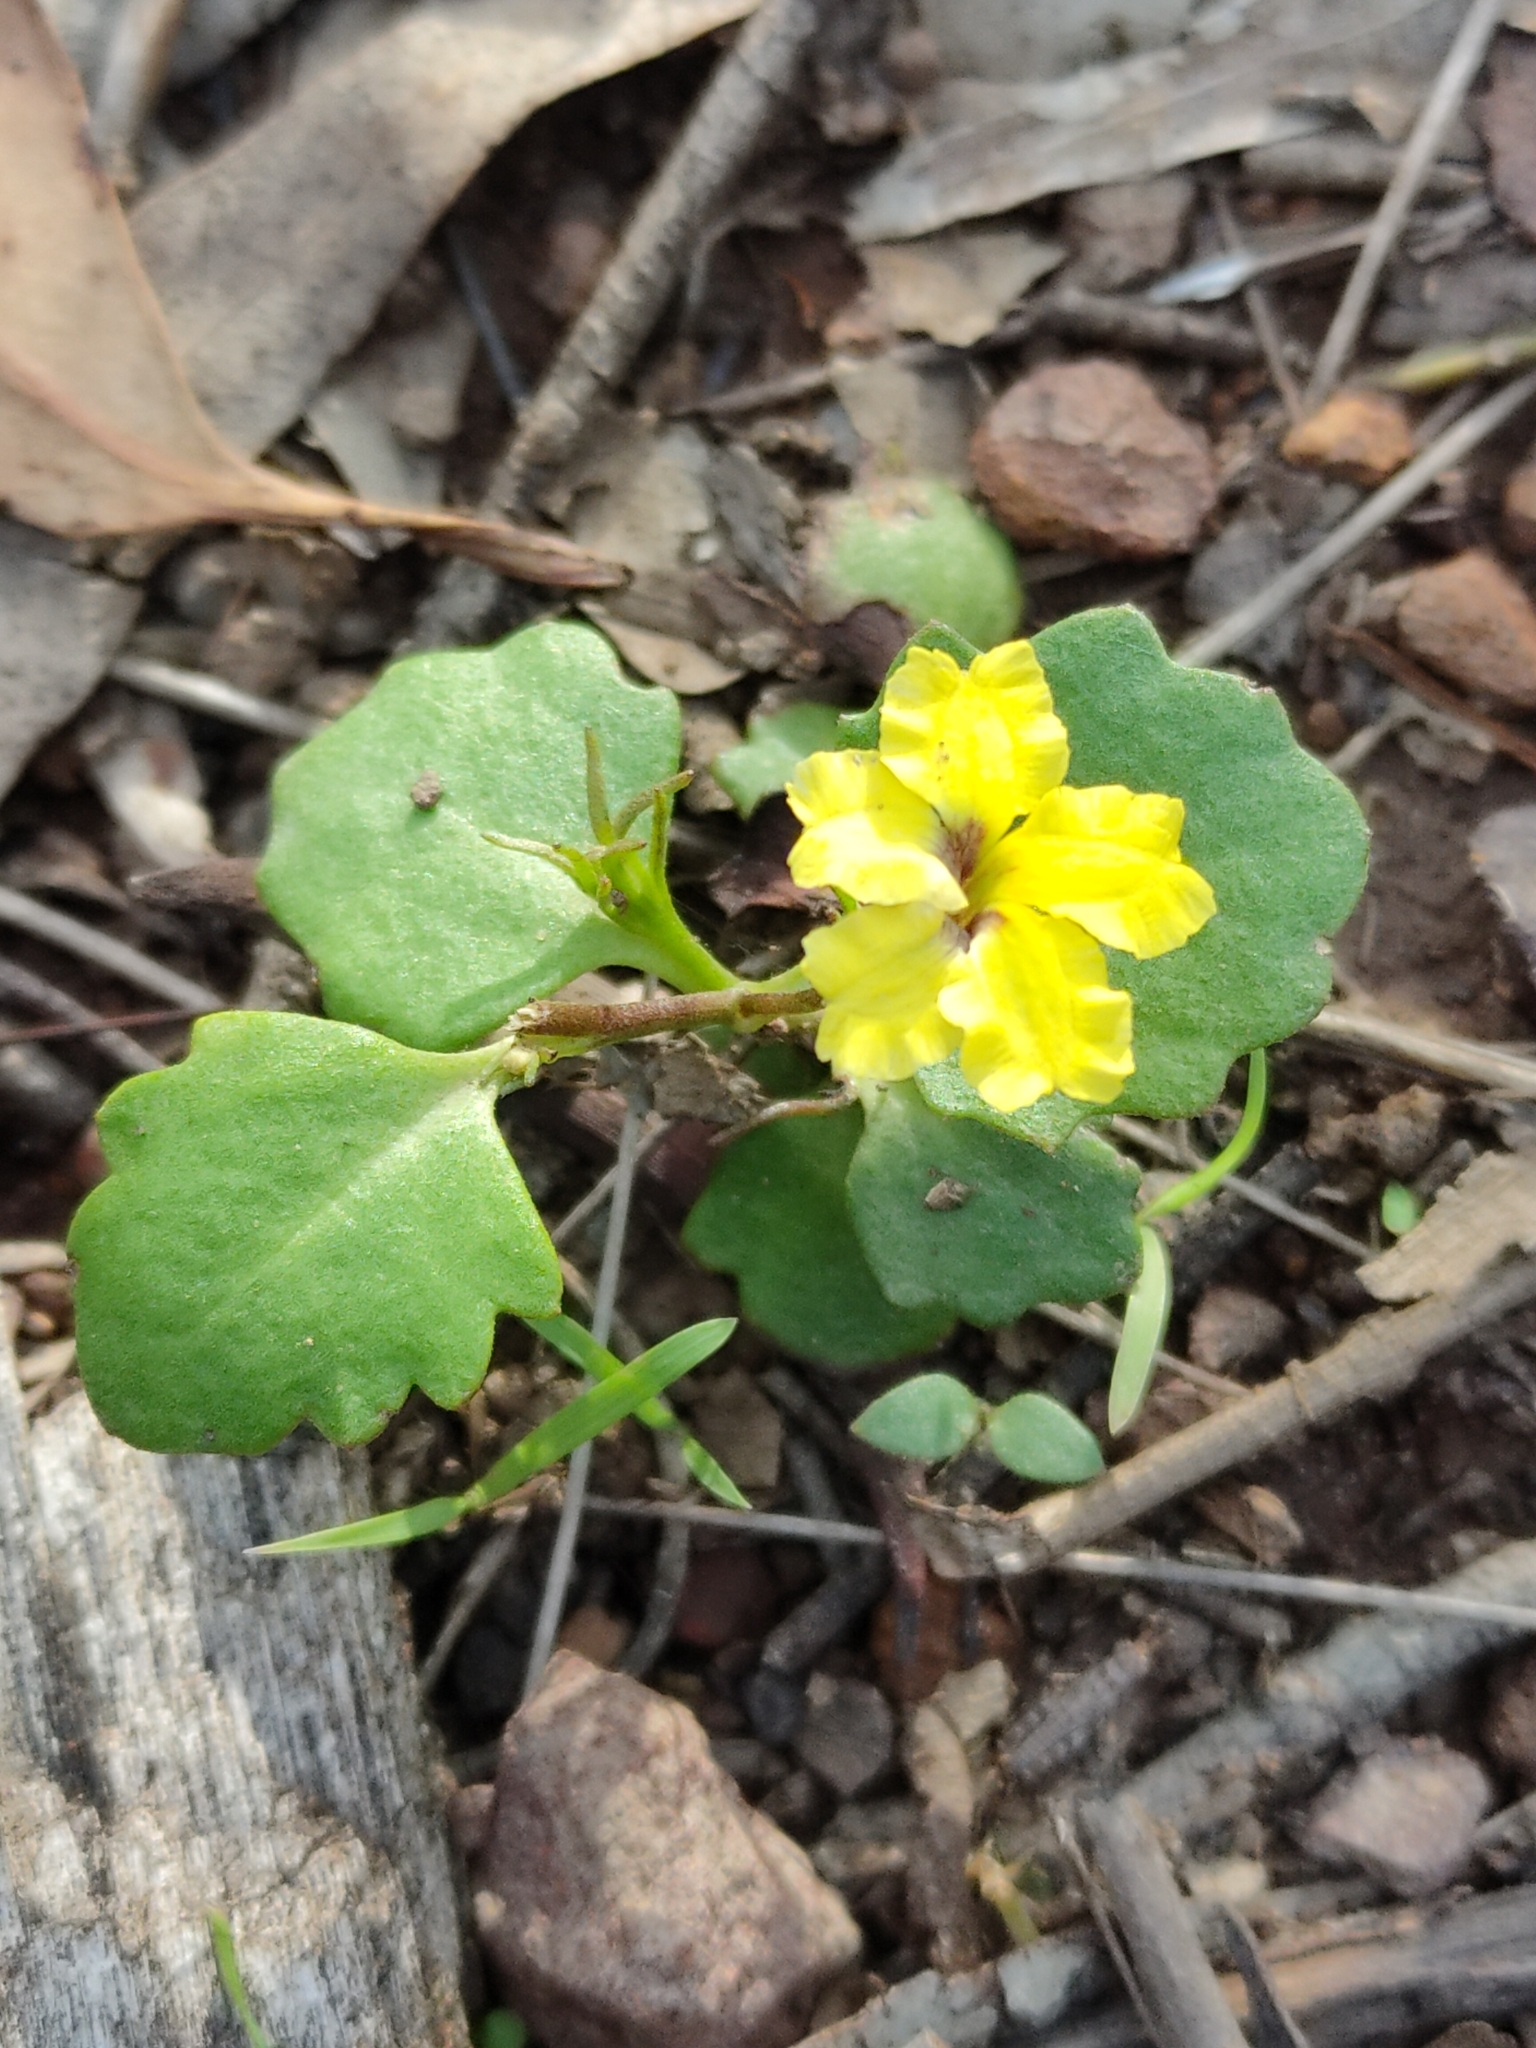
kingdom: Plantae
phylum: Tracheophyta
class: Magnoliopsida
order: Asterales
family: Goodeniaceae
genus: Goodenia
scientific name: Goodenia rotundifolia
